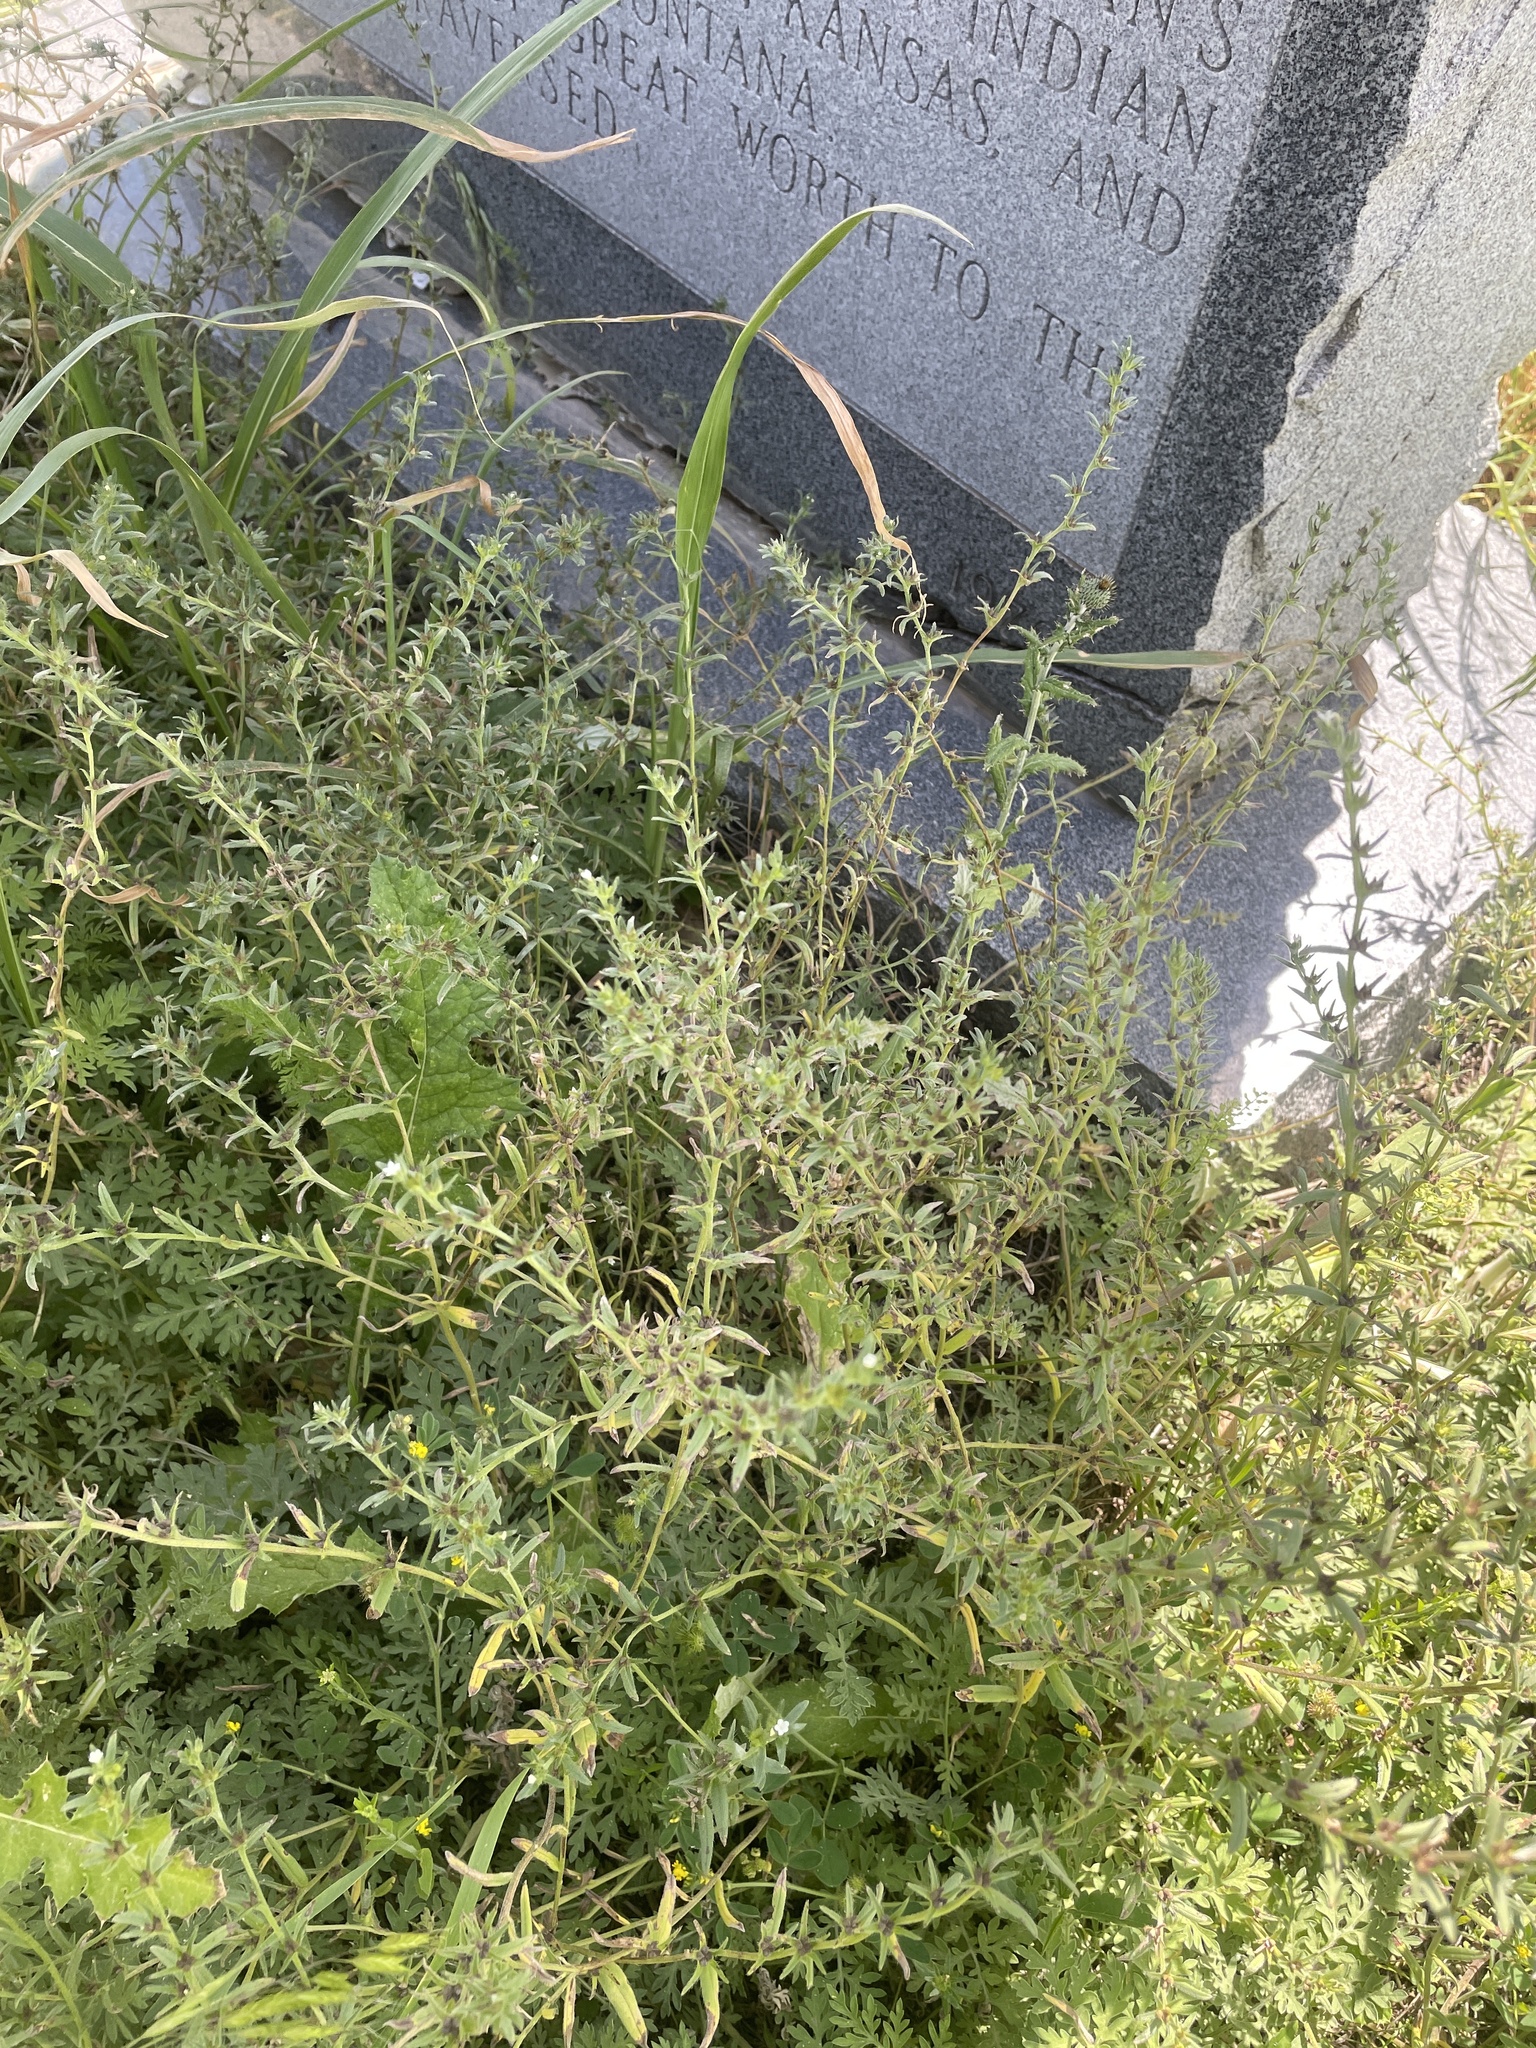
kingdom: Plantae
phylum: Tracheophyta
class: Magnoliopsida
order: Boraginales
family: Boraginaceae
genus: Buglossoides
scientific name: Buglossoides arvensis
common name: Corn gromwell
